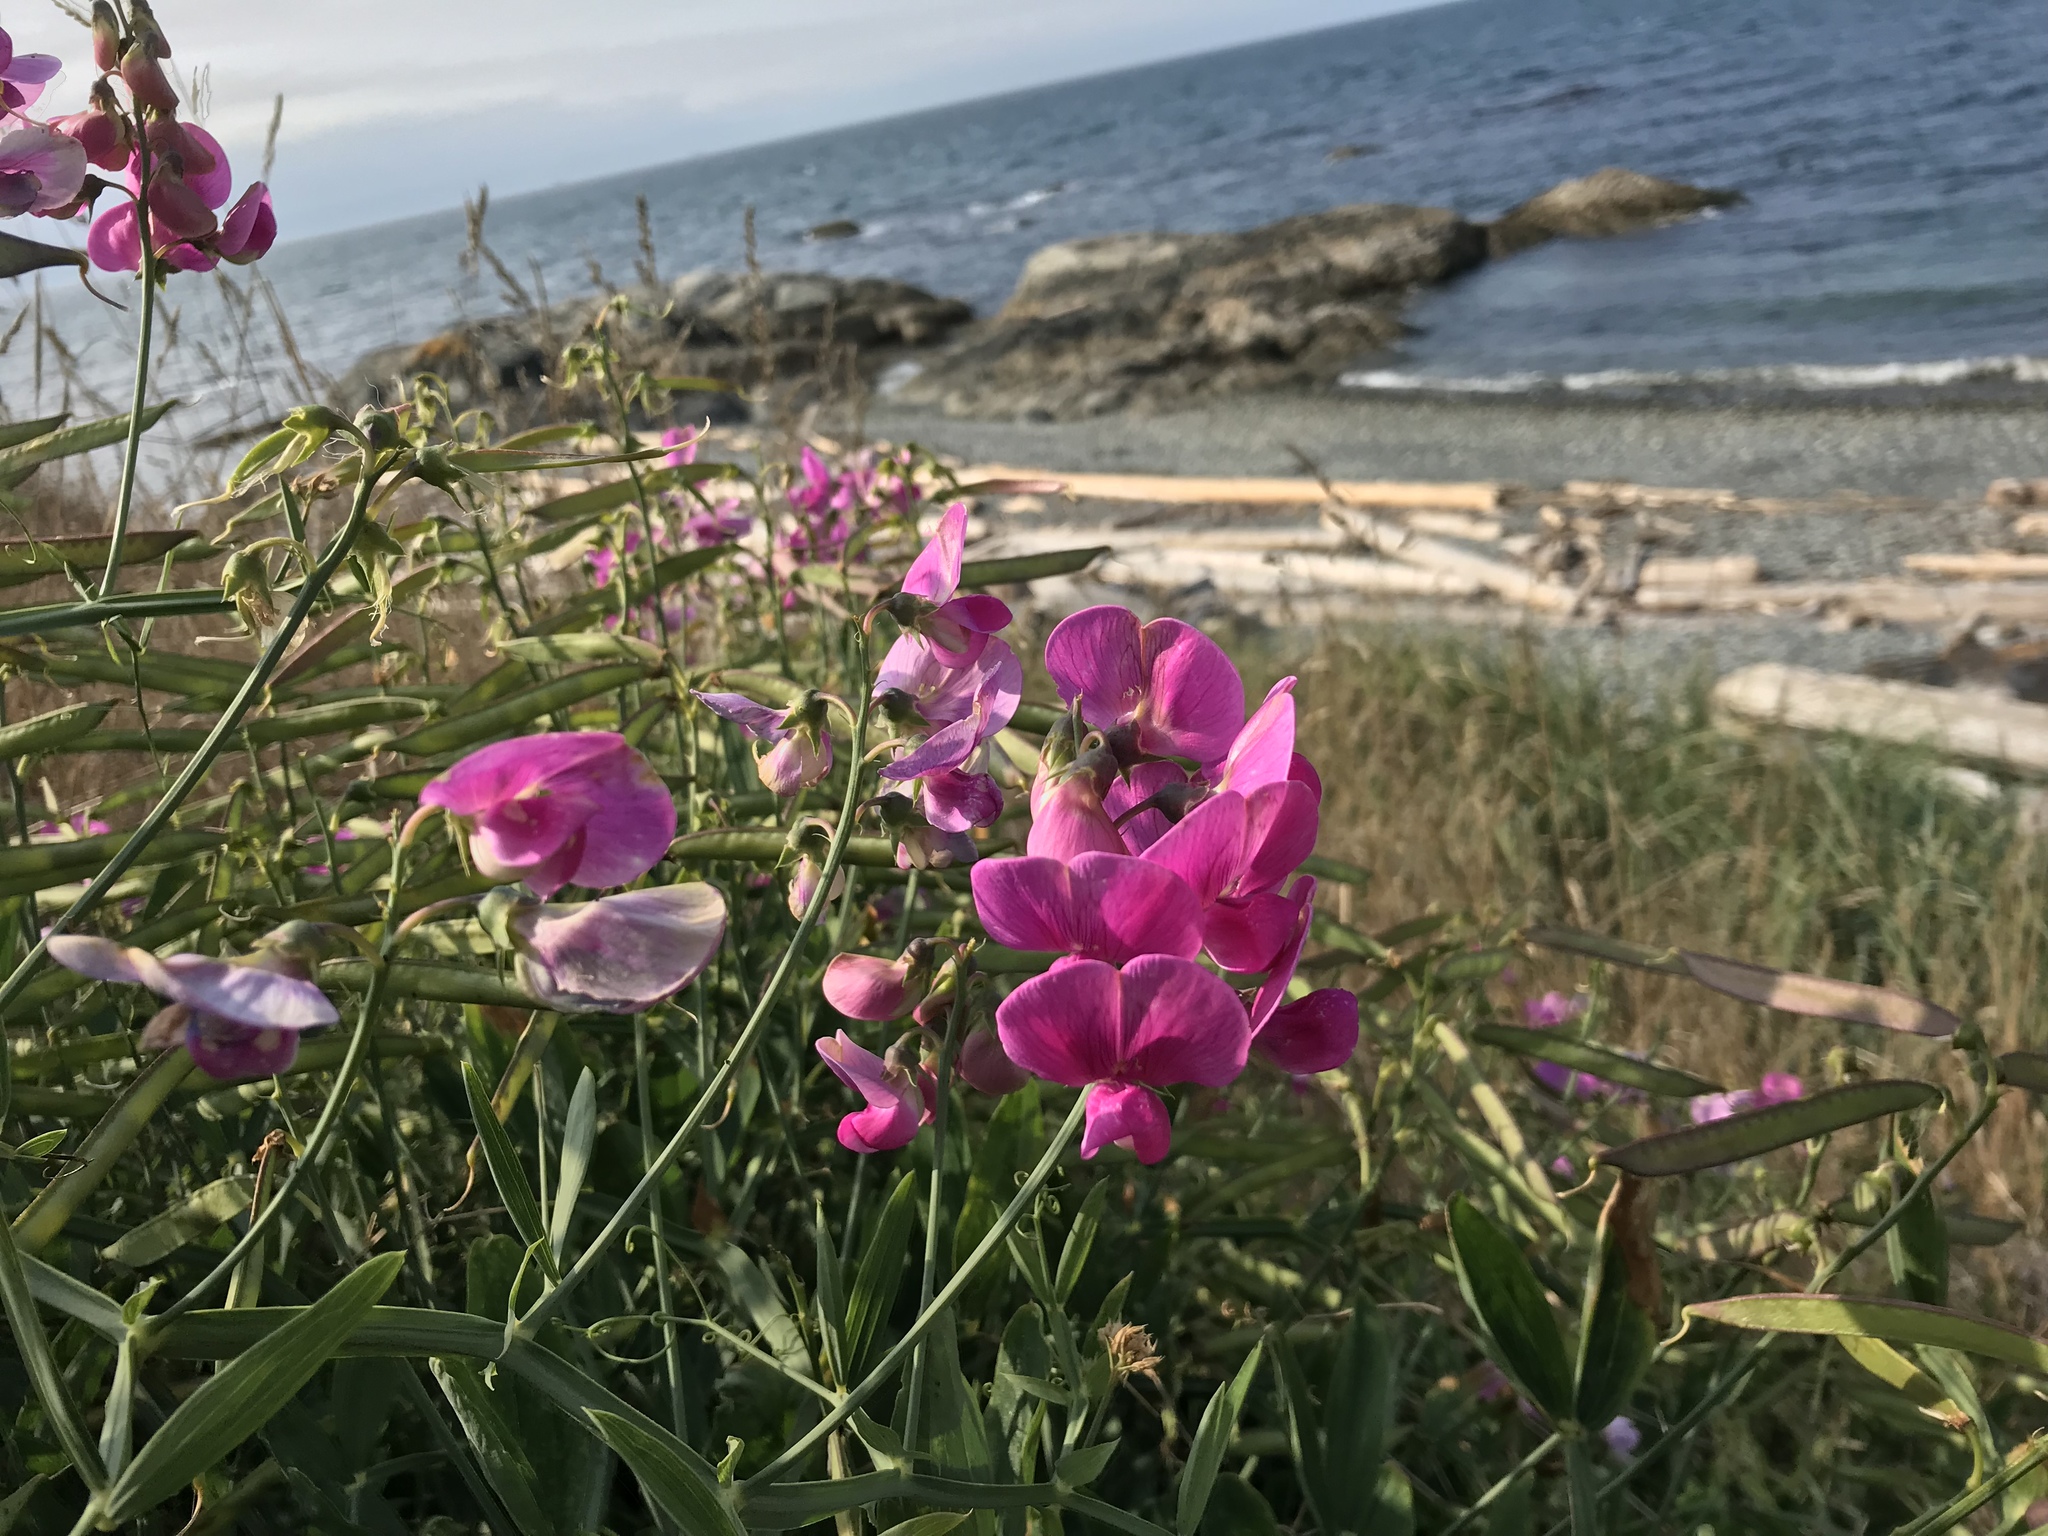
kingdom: Plantae
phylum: Tracheophyta
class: Magnoliopsida
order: Fabales
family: Fabaceae
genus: Lathyrus
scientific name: Lathyrus latifolius
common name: Perennial pea
